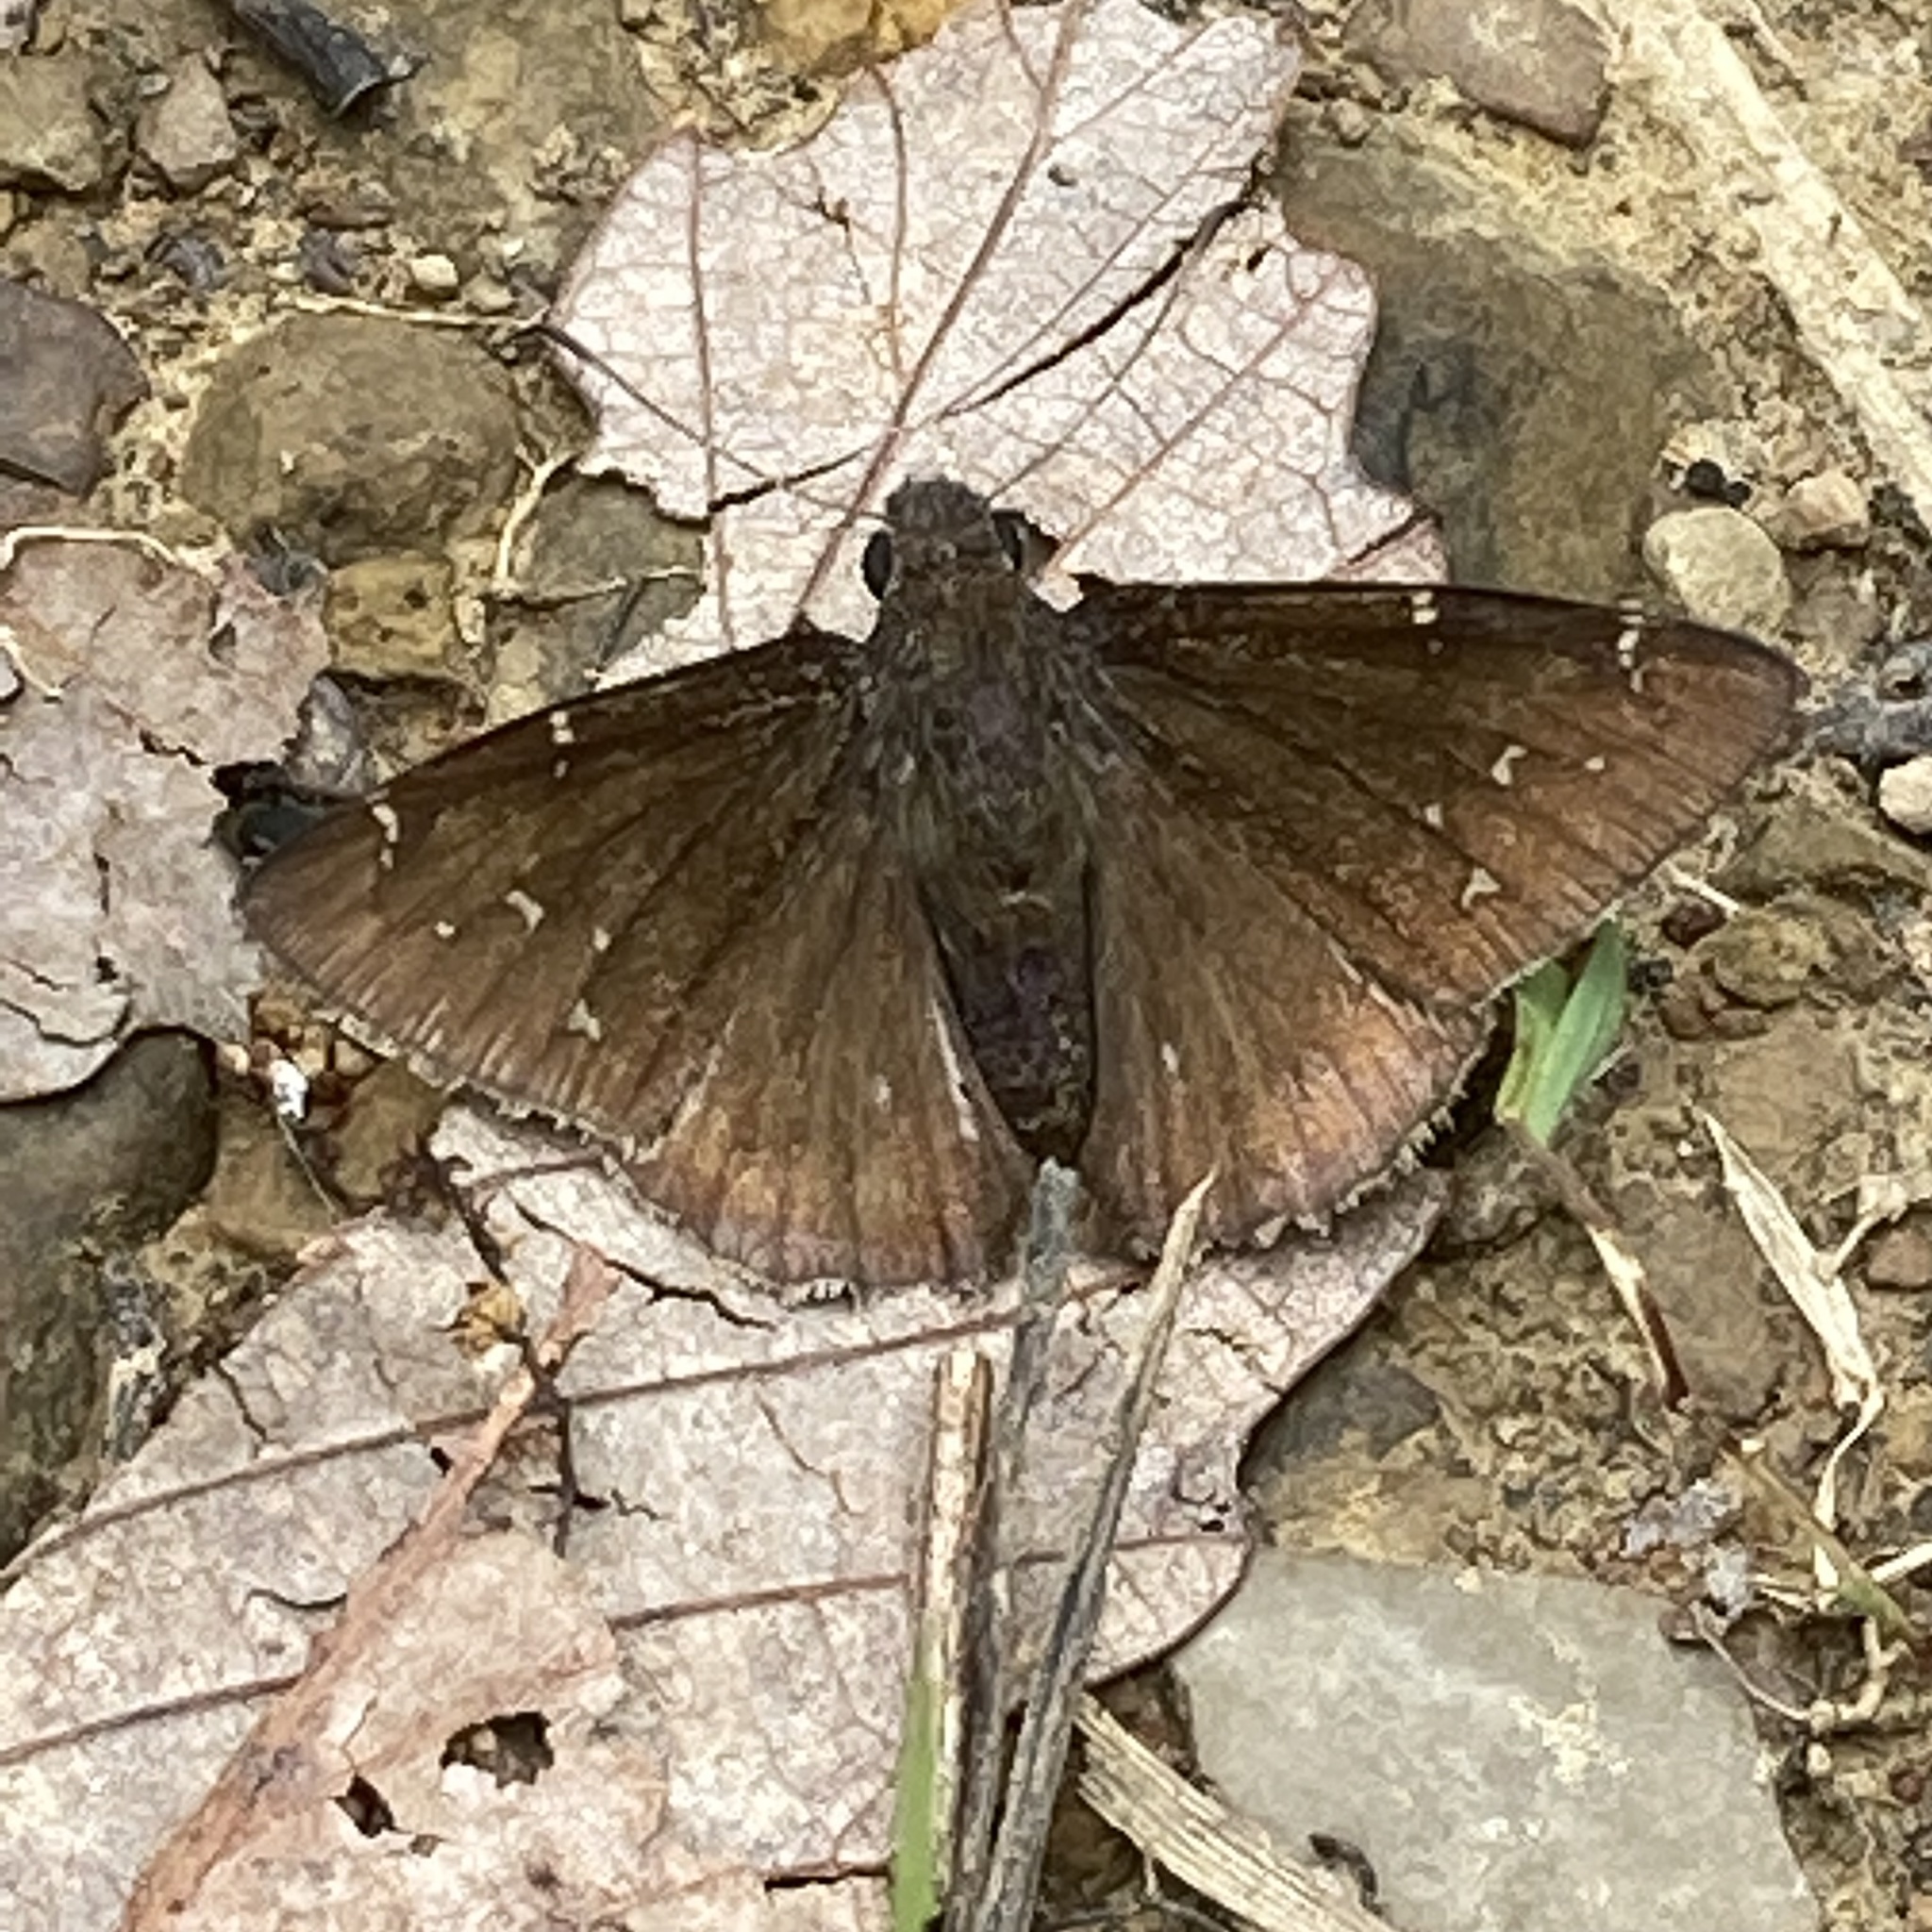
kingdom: Animalia
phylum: Arthropoda
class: Insecta
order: Lepidoptera
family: Hesperiidae
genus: Thorybes
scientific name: Thorybes pylades
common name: Northern cloudywing
